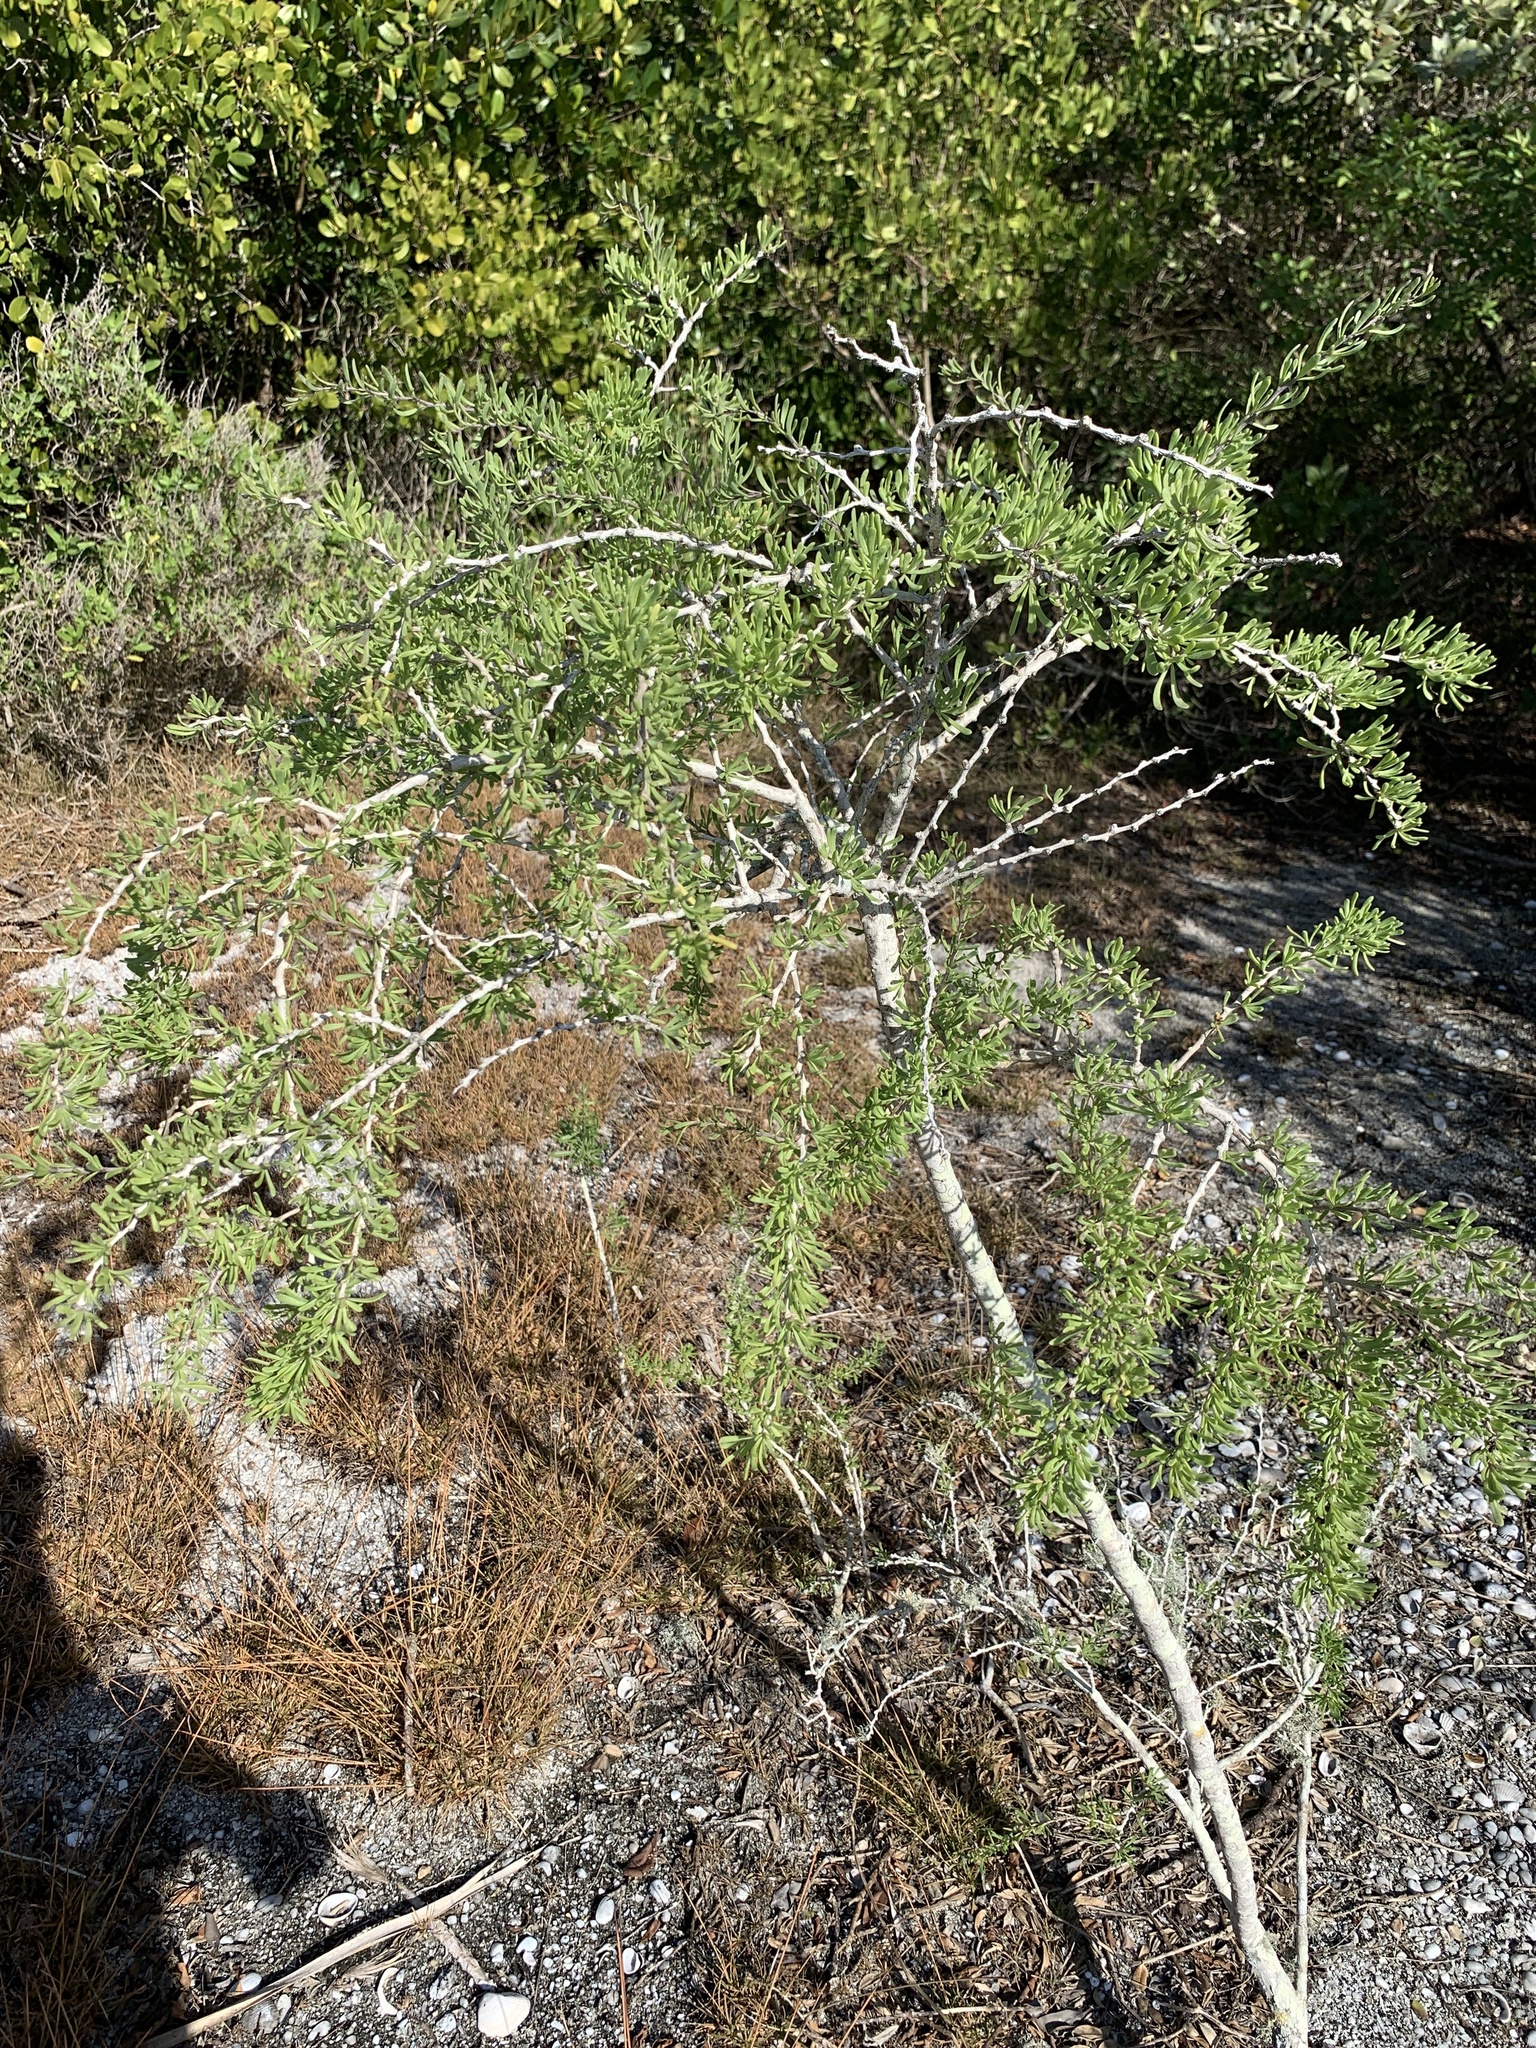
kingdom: Plantae
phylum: Tracheophyta
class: Magnoliopsida
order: Solanales
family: Solanaceae
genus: Lycium
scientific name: Lycium carolinianum
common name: Christmasberry
